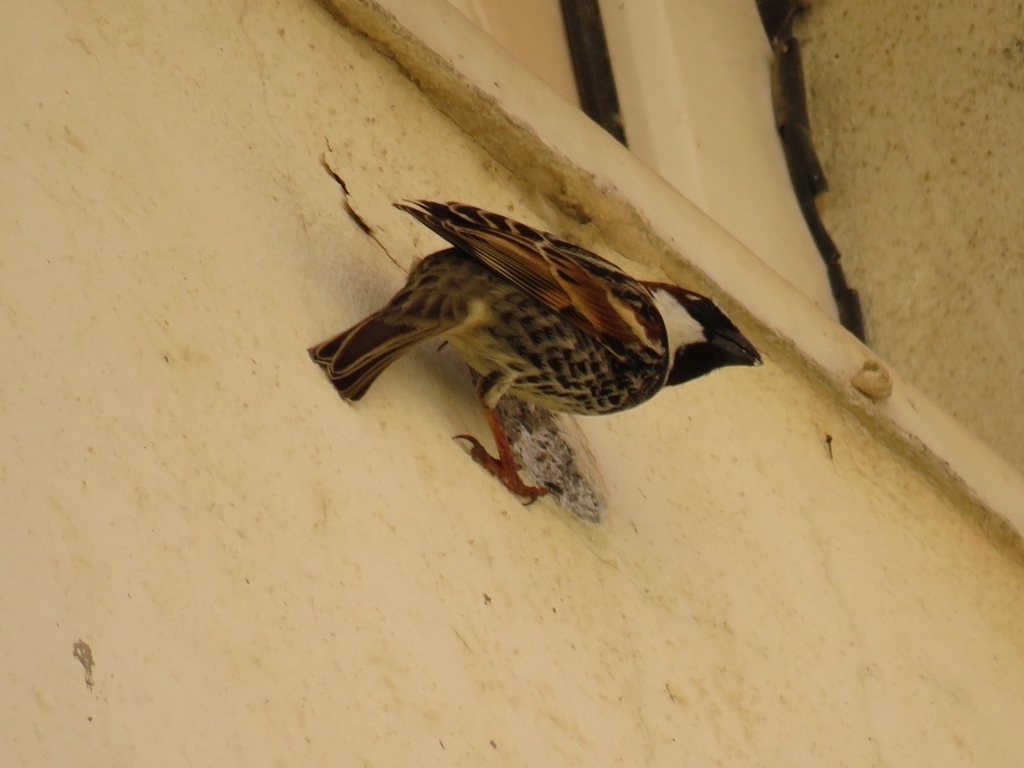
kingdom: Animalia
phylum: Chordata
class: Aves
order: Passeriformes
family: Passeridae
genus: Passer
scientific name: Passer hispaniolensis
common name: Spanish sparrow
